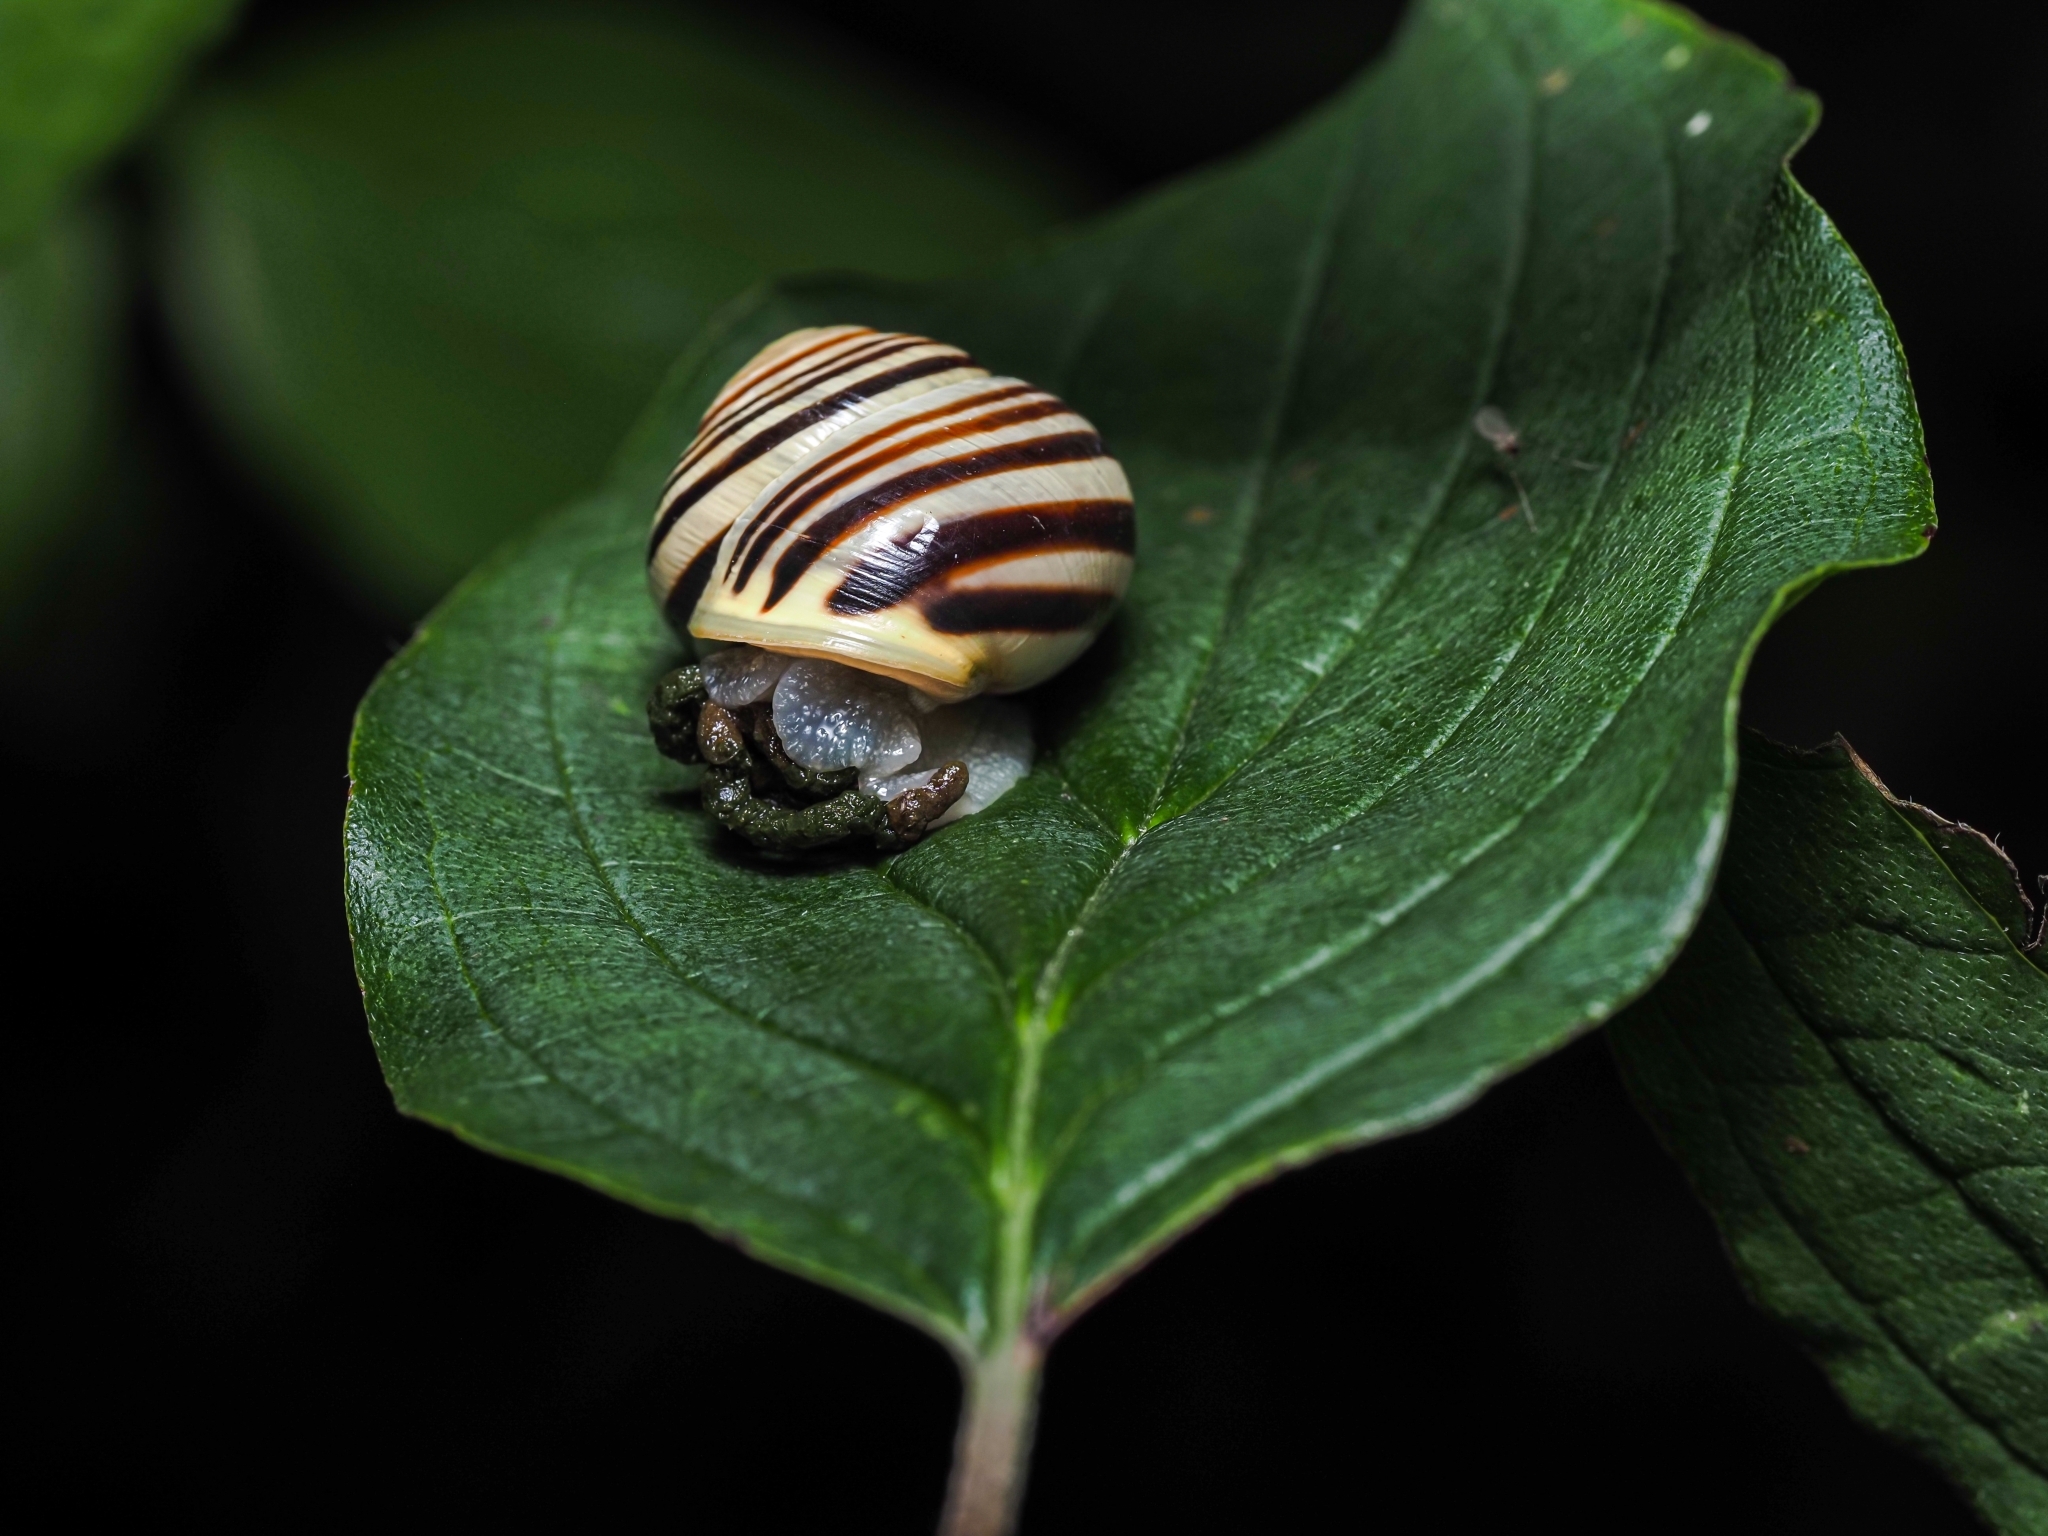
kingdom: Animalia
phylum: Mollusca
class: Gastropoda
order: Stylommatophora
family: Helicidae
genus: Cepaea
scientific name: Cepaea hortensis
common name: White-lip gardensnail
